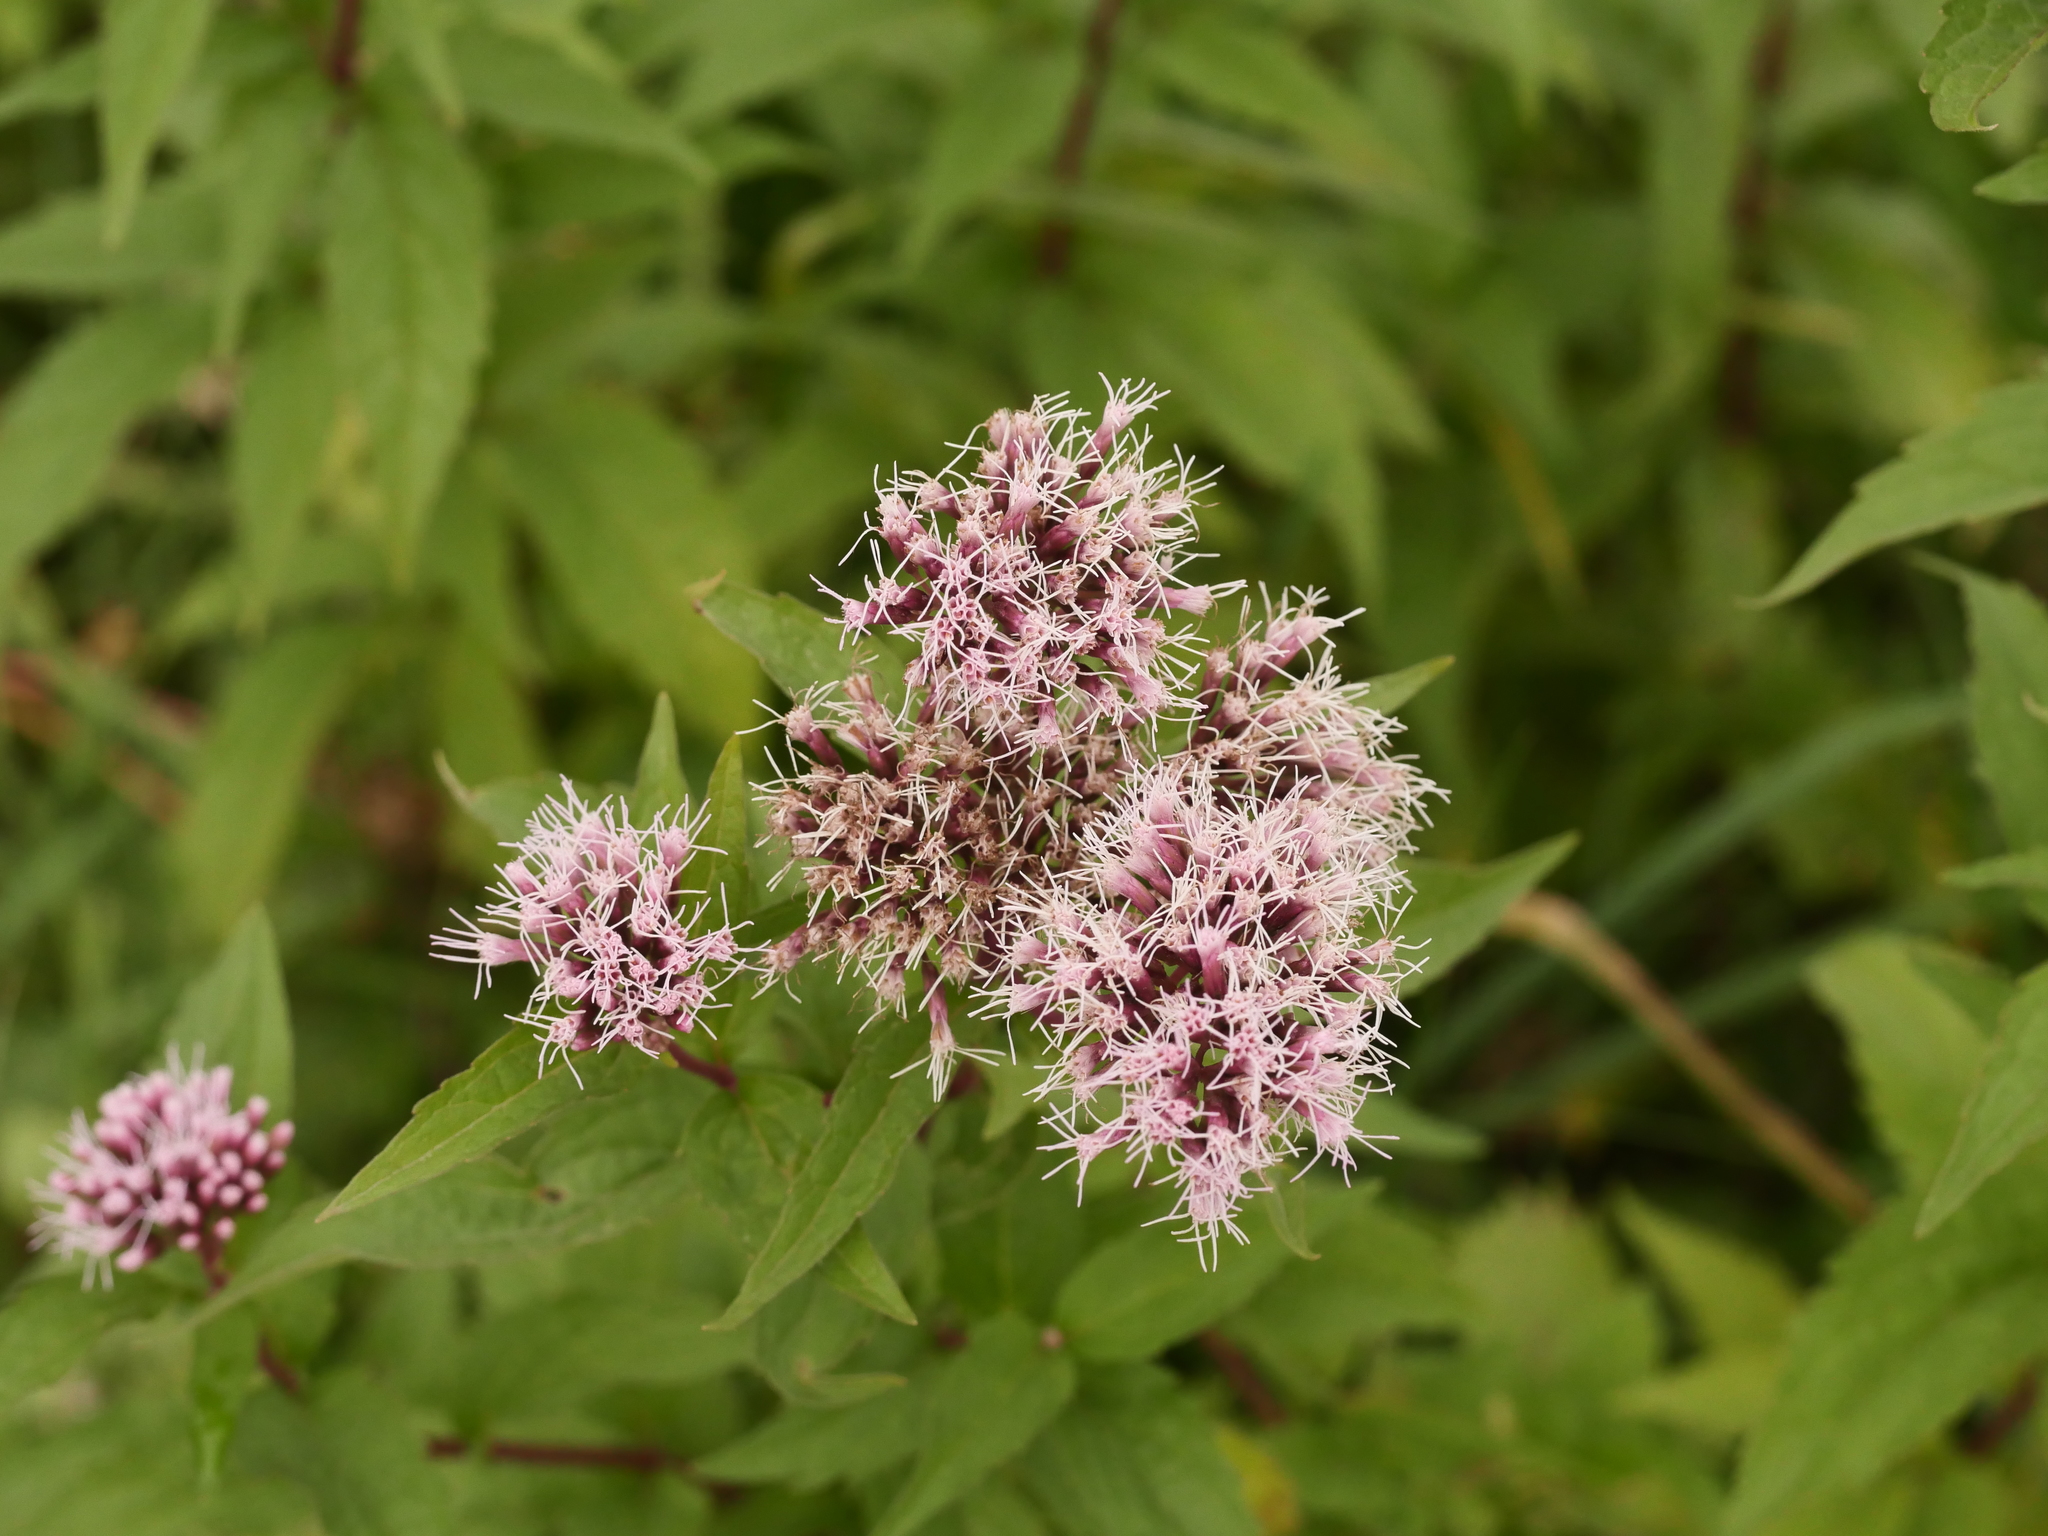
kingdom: Plantae
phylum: Tracheophyta
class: Magnoliopsida
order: Asterales
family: Asteraceae
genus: Eupatorium
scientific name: Eupatorium cannabinum
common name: Hemp-agrimony
